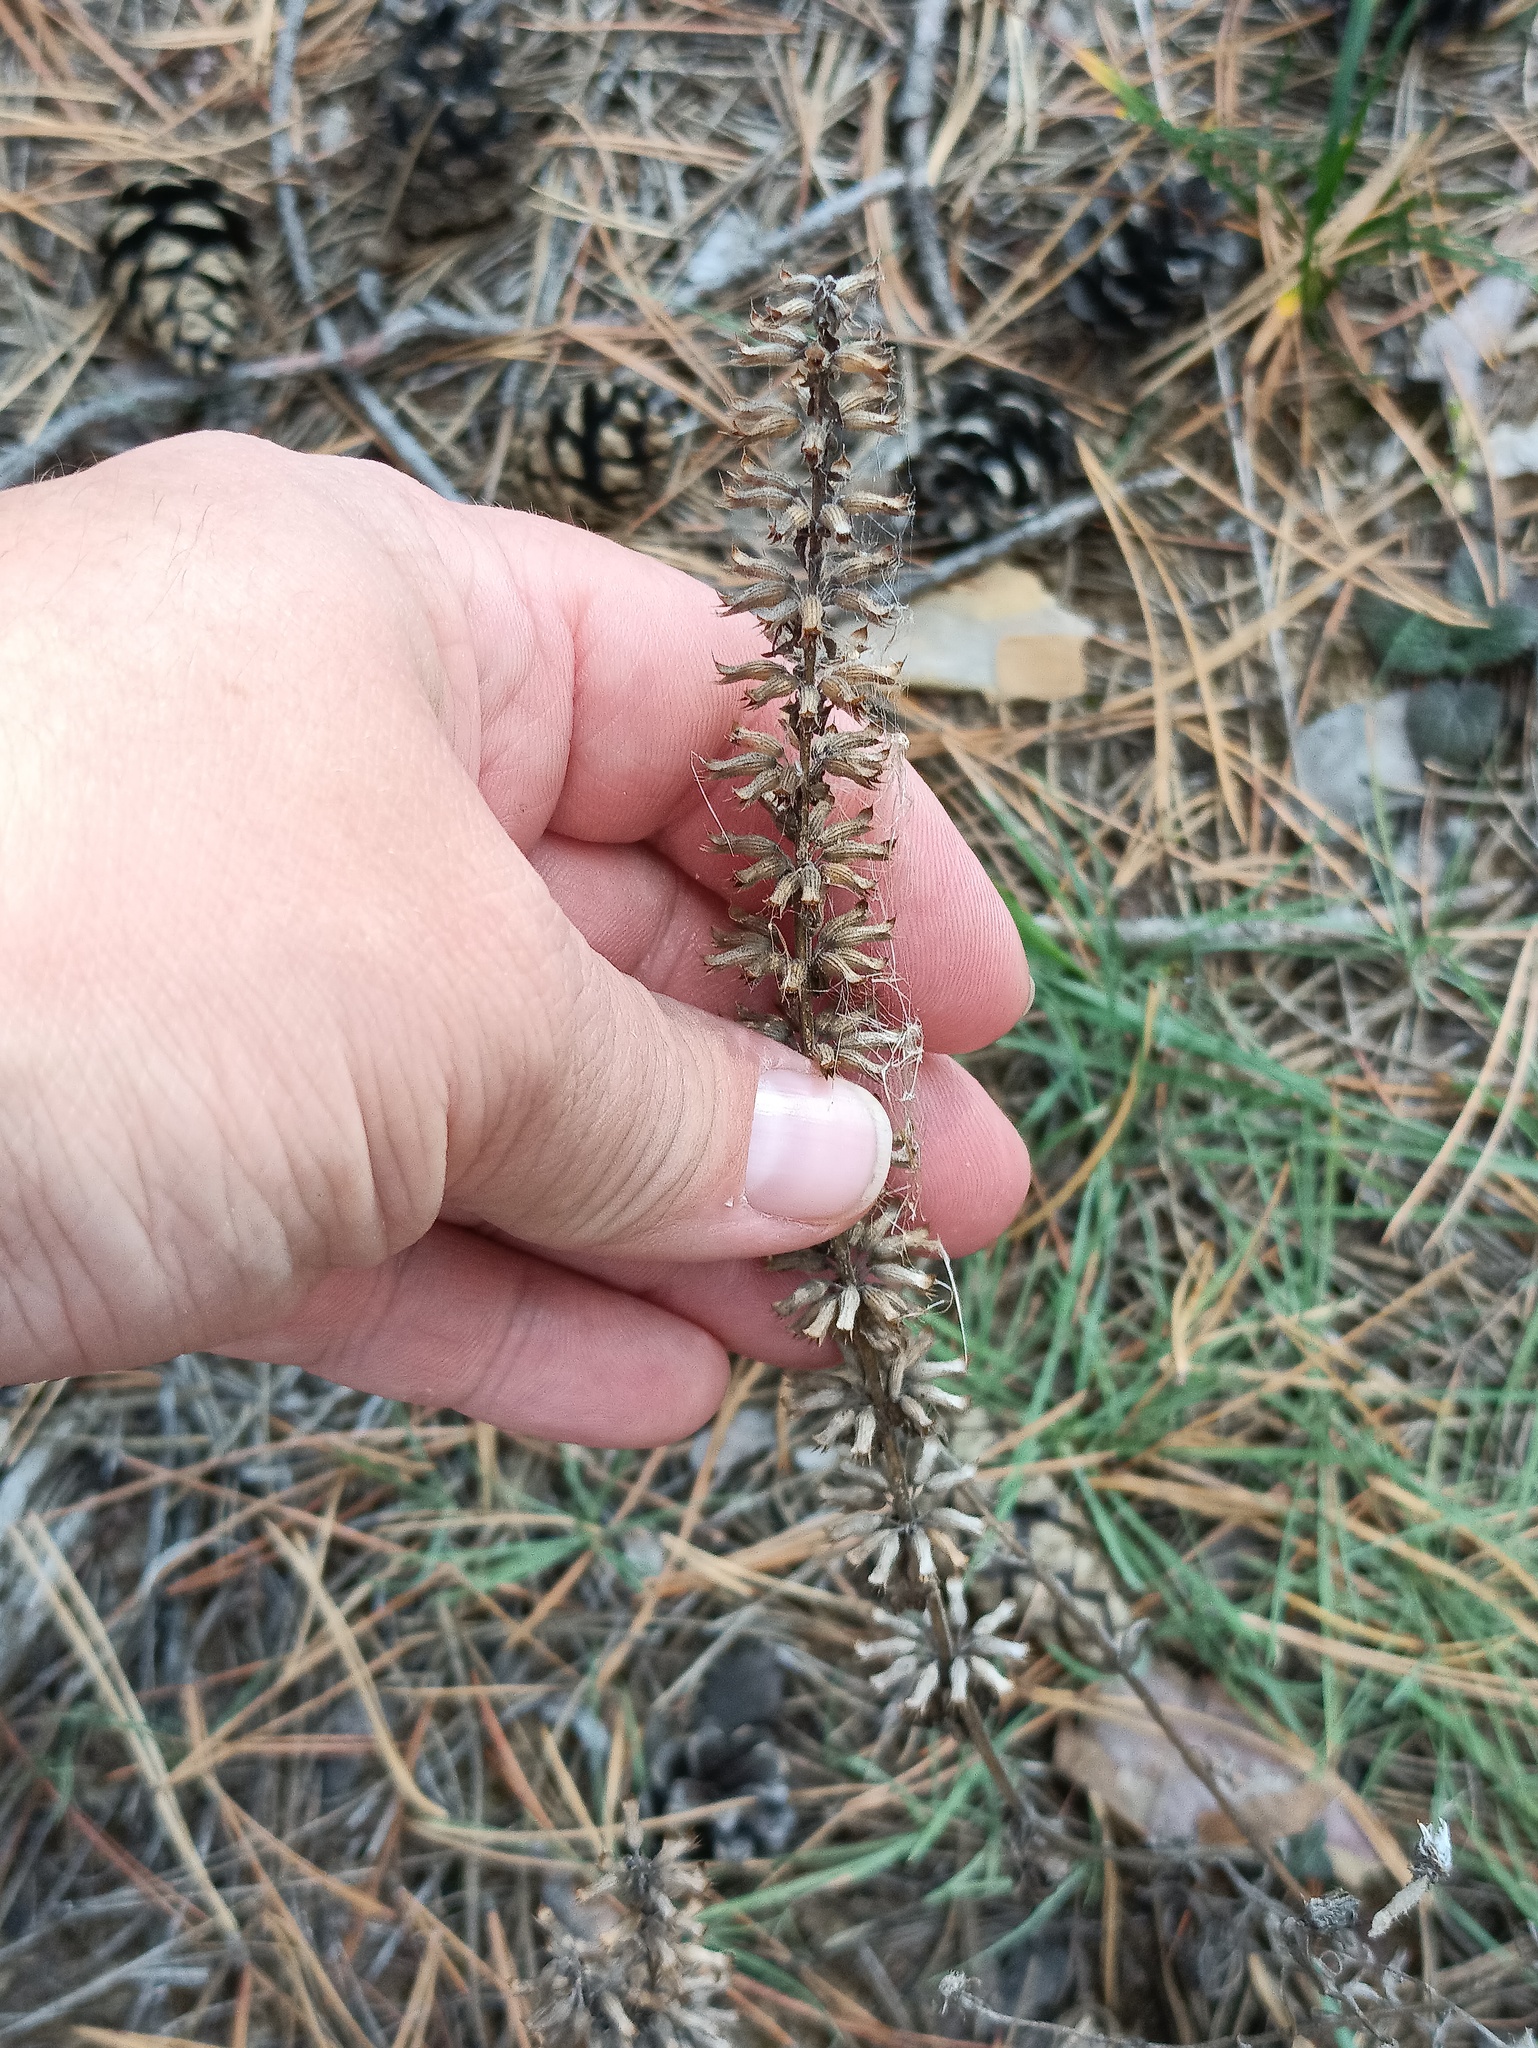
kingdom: Plantae
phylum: Tracheophyta
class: Magnoliopsida
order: Lamiales
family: Lamiaceae
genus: Dracocephalum
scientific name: Dracocephalum thymiflorum
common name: Thymeleaf dragonhead
